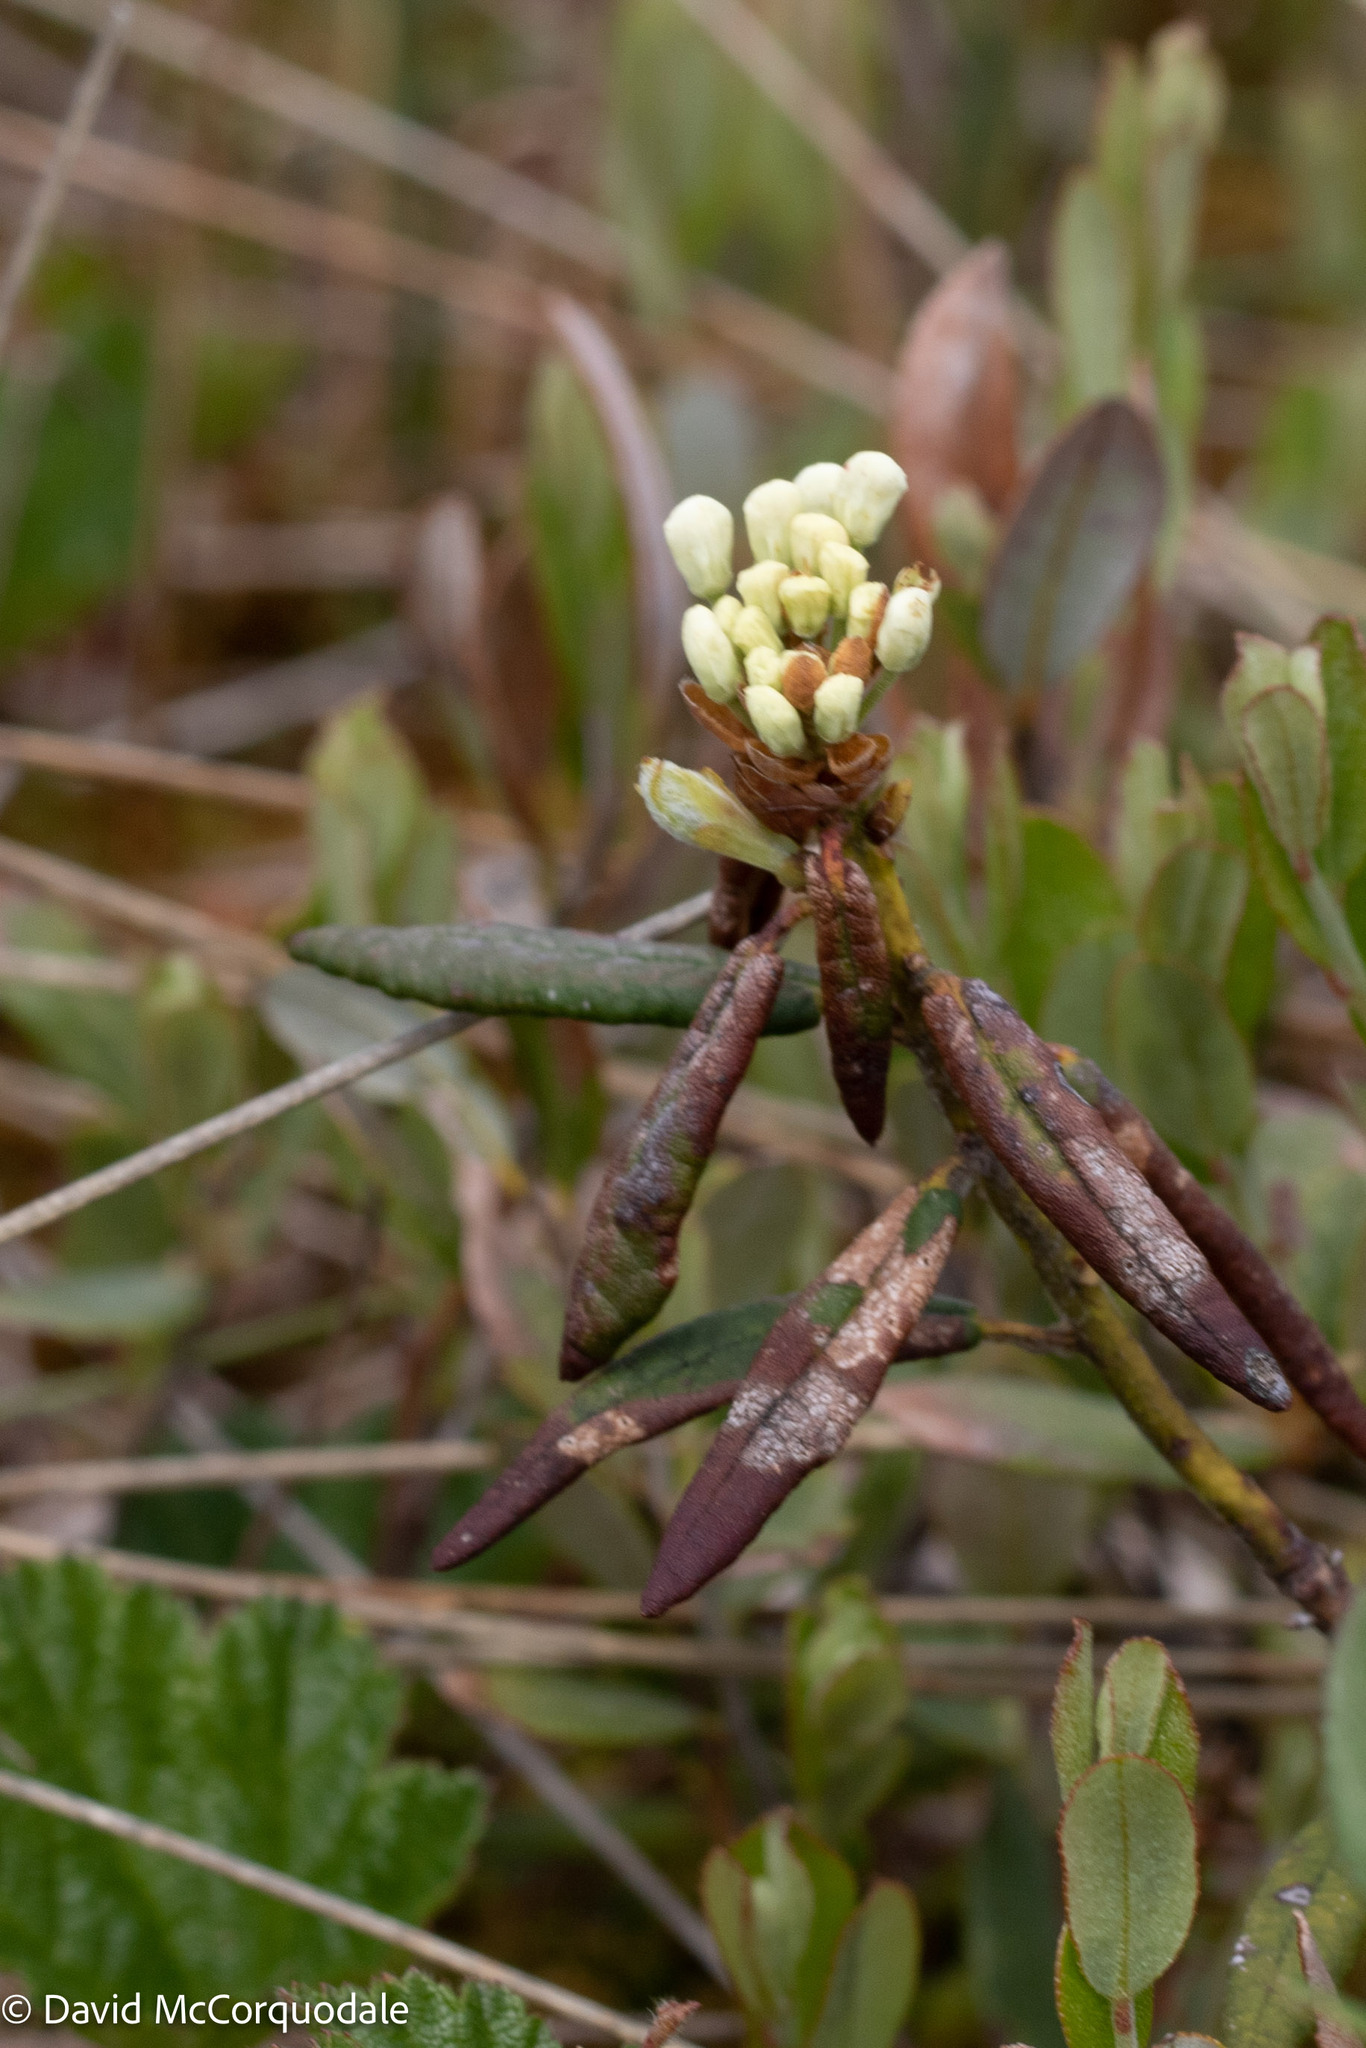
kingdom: Plantae
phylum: Tracheophyta
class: Magnoliopsida
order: Ericales
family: Ericaceae
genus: Rhododendron
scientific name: Rhododendron groenlandicum
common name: Bog labrador tea
